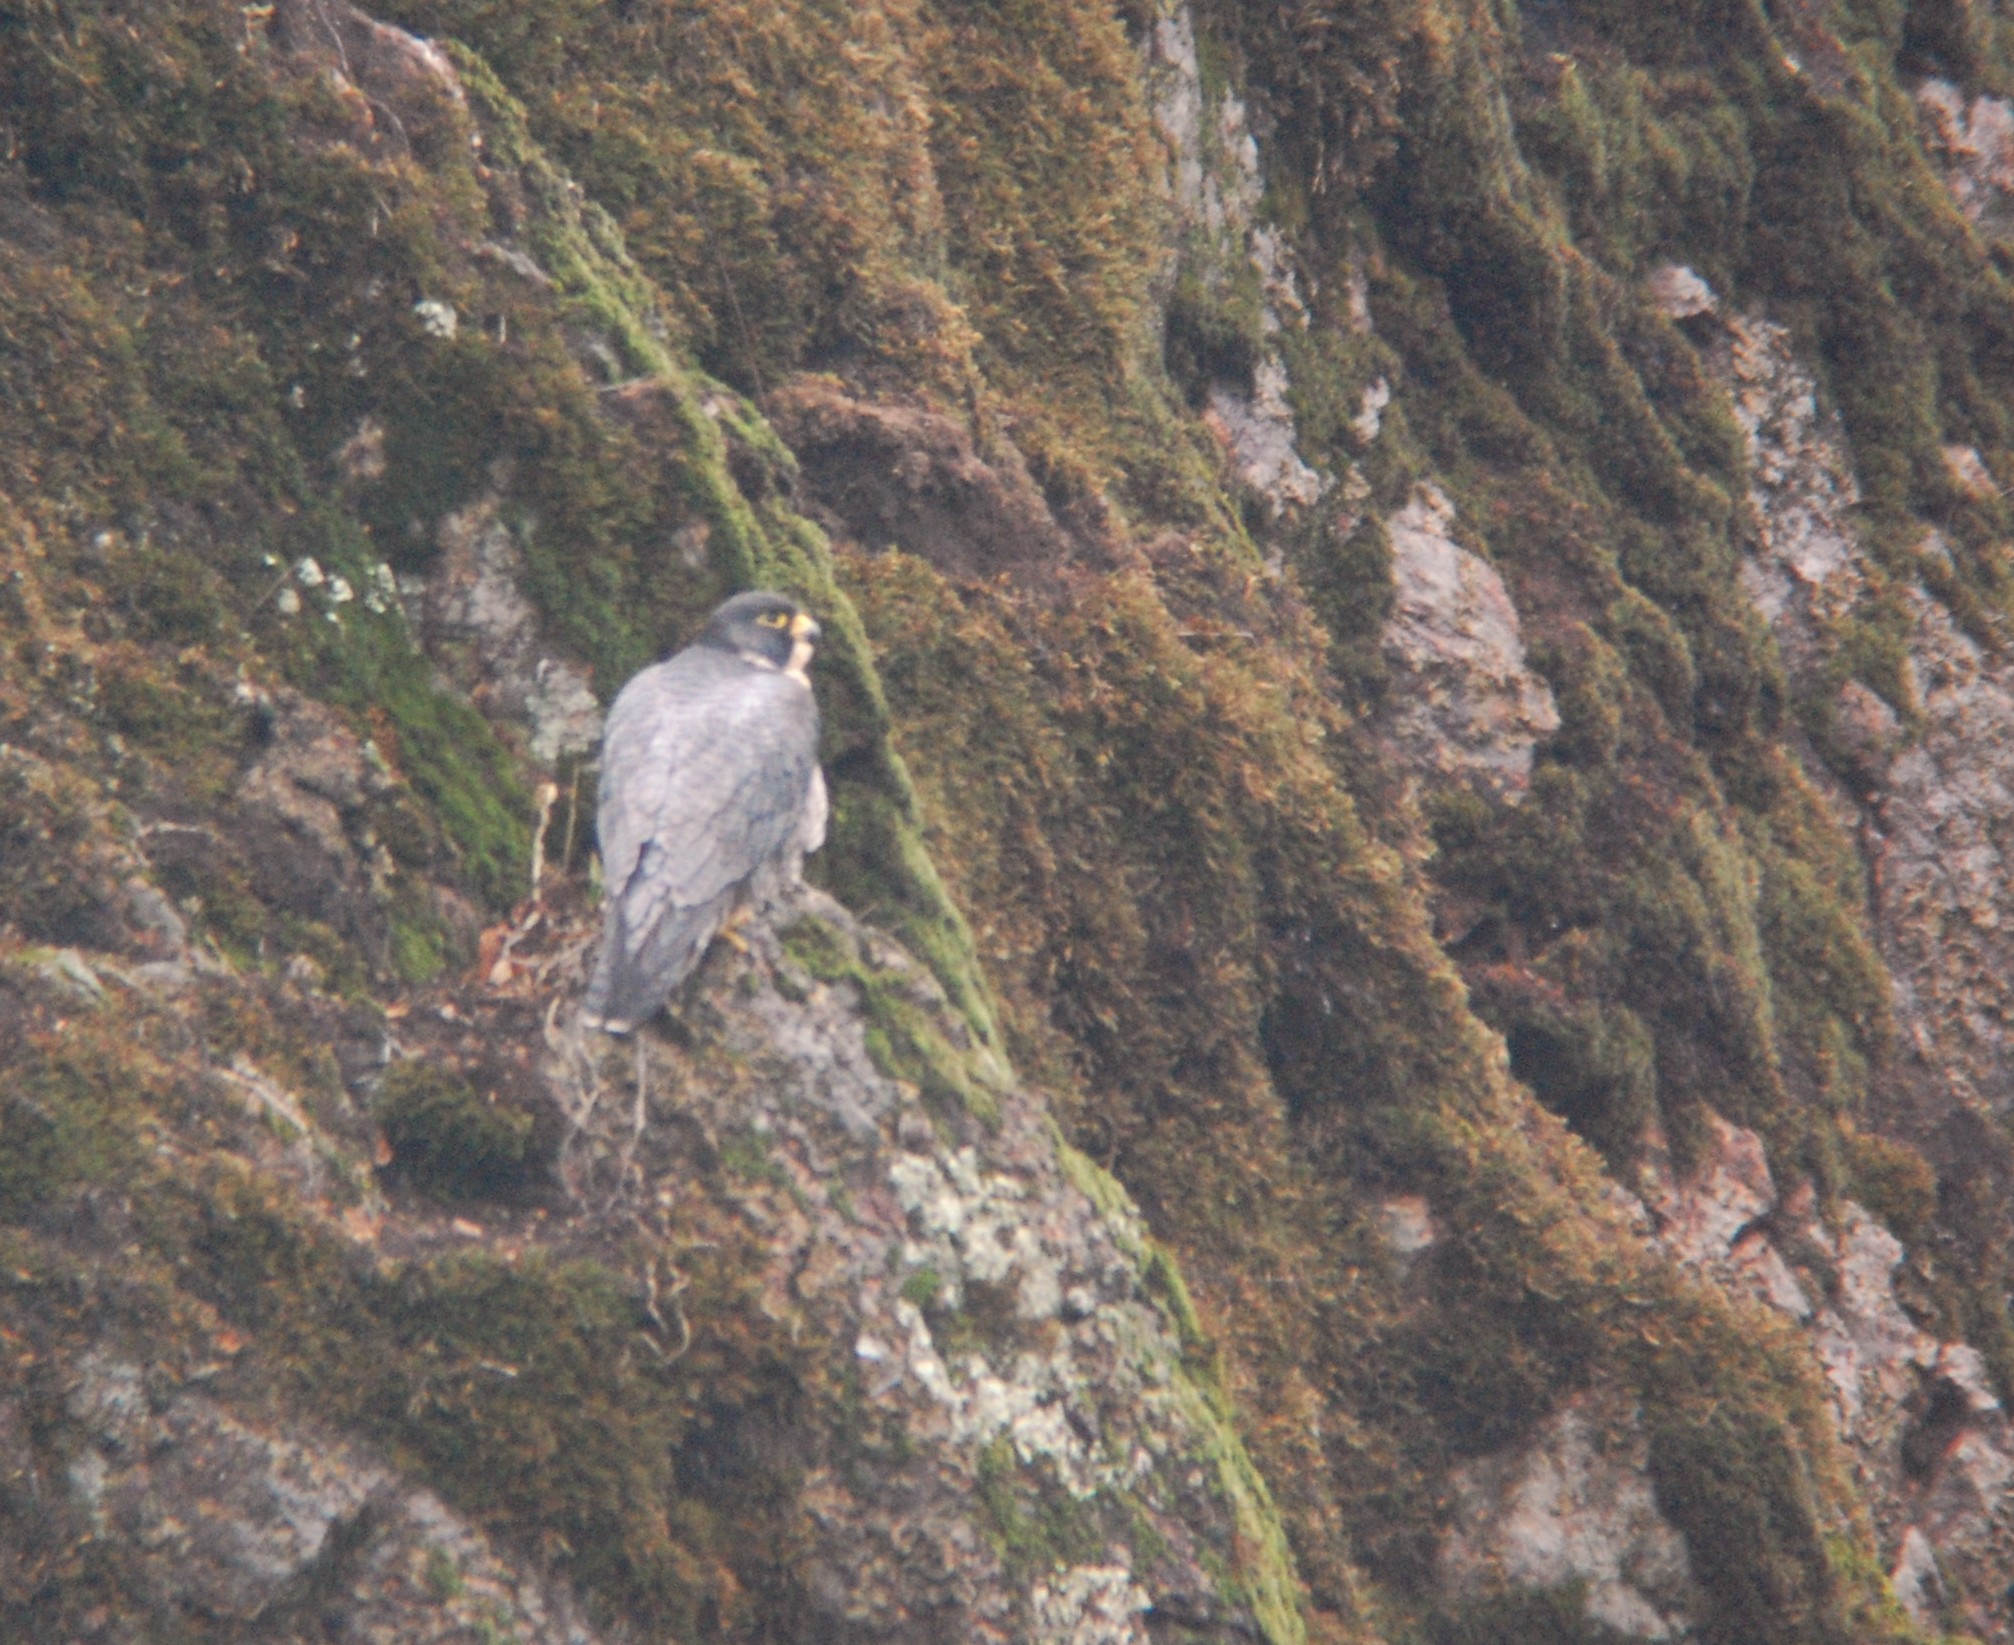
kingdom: Animalia
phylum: Chordata
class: Aves
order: Falconiformes
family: Falconidae
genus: Falco
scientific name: Falco peregrinus
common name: Peregrine falcon
